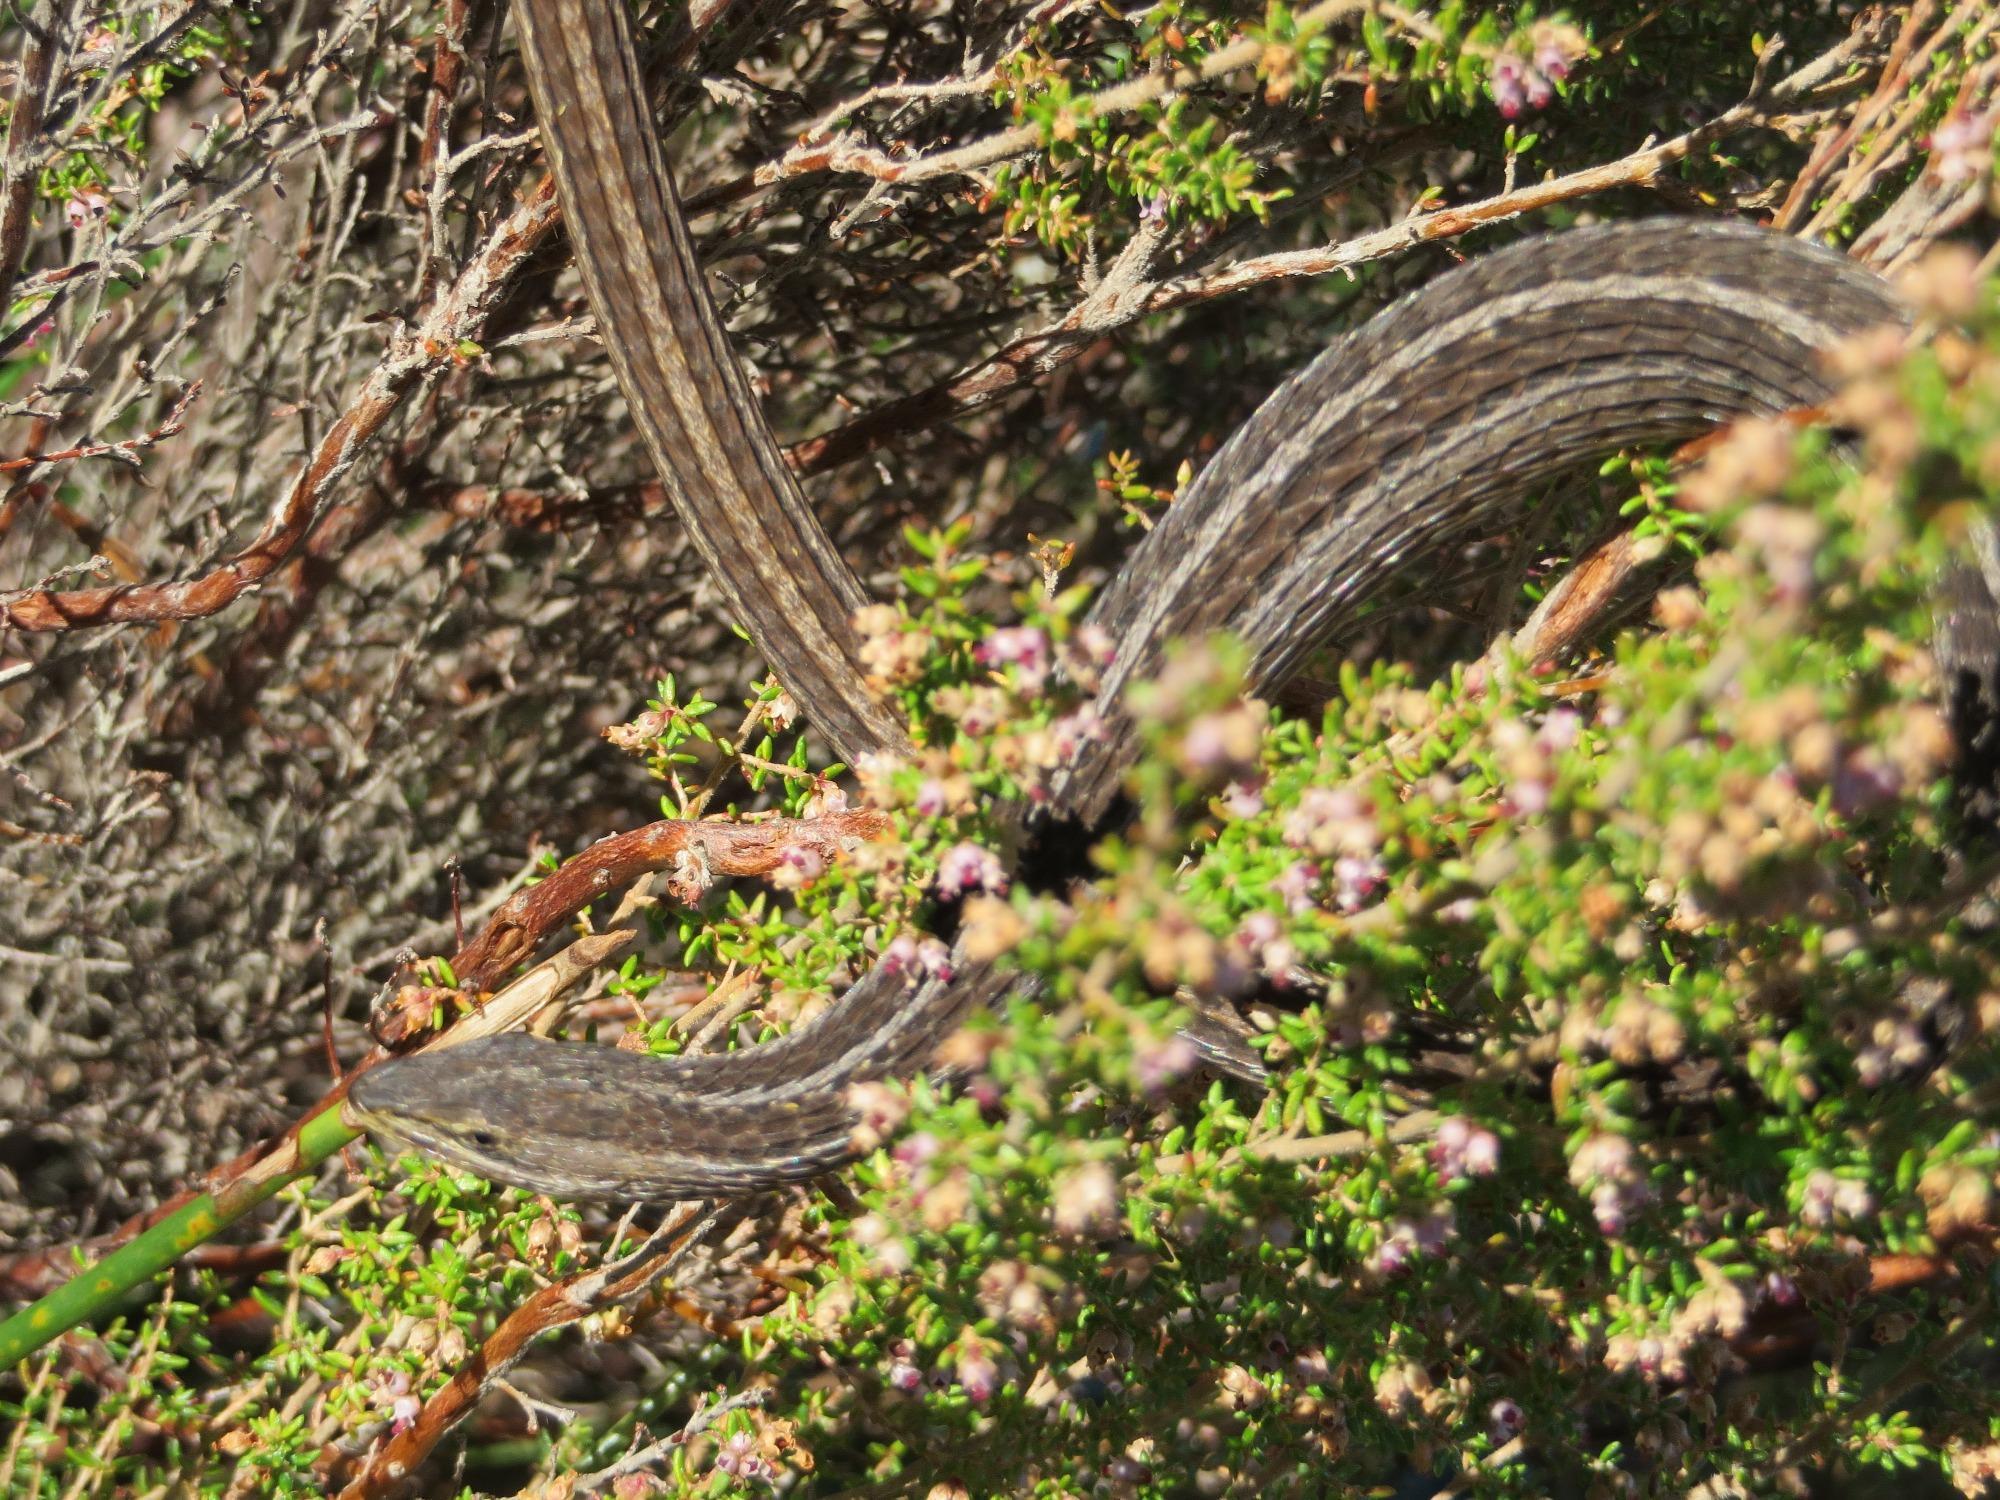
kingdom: Animalia
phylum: Chordata
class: Squamata
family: Cordylidae
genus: Chamaesaura
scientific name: Chamaesaura anguina
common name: Cape snake lizard
